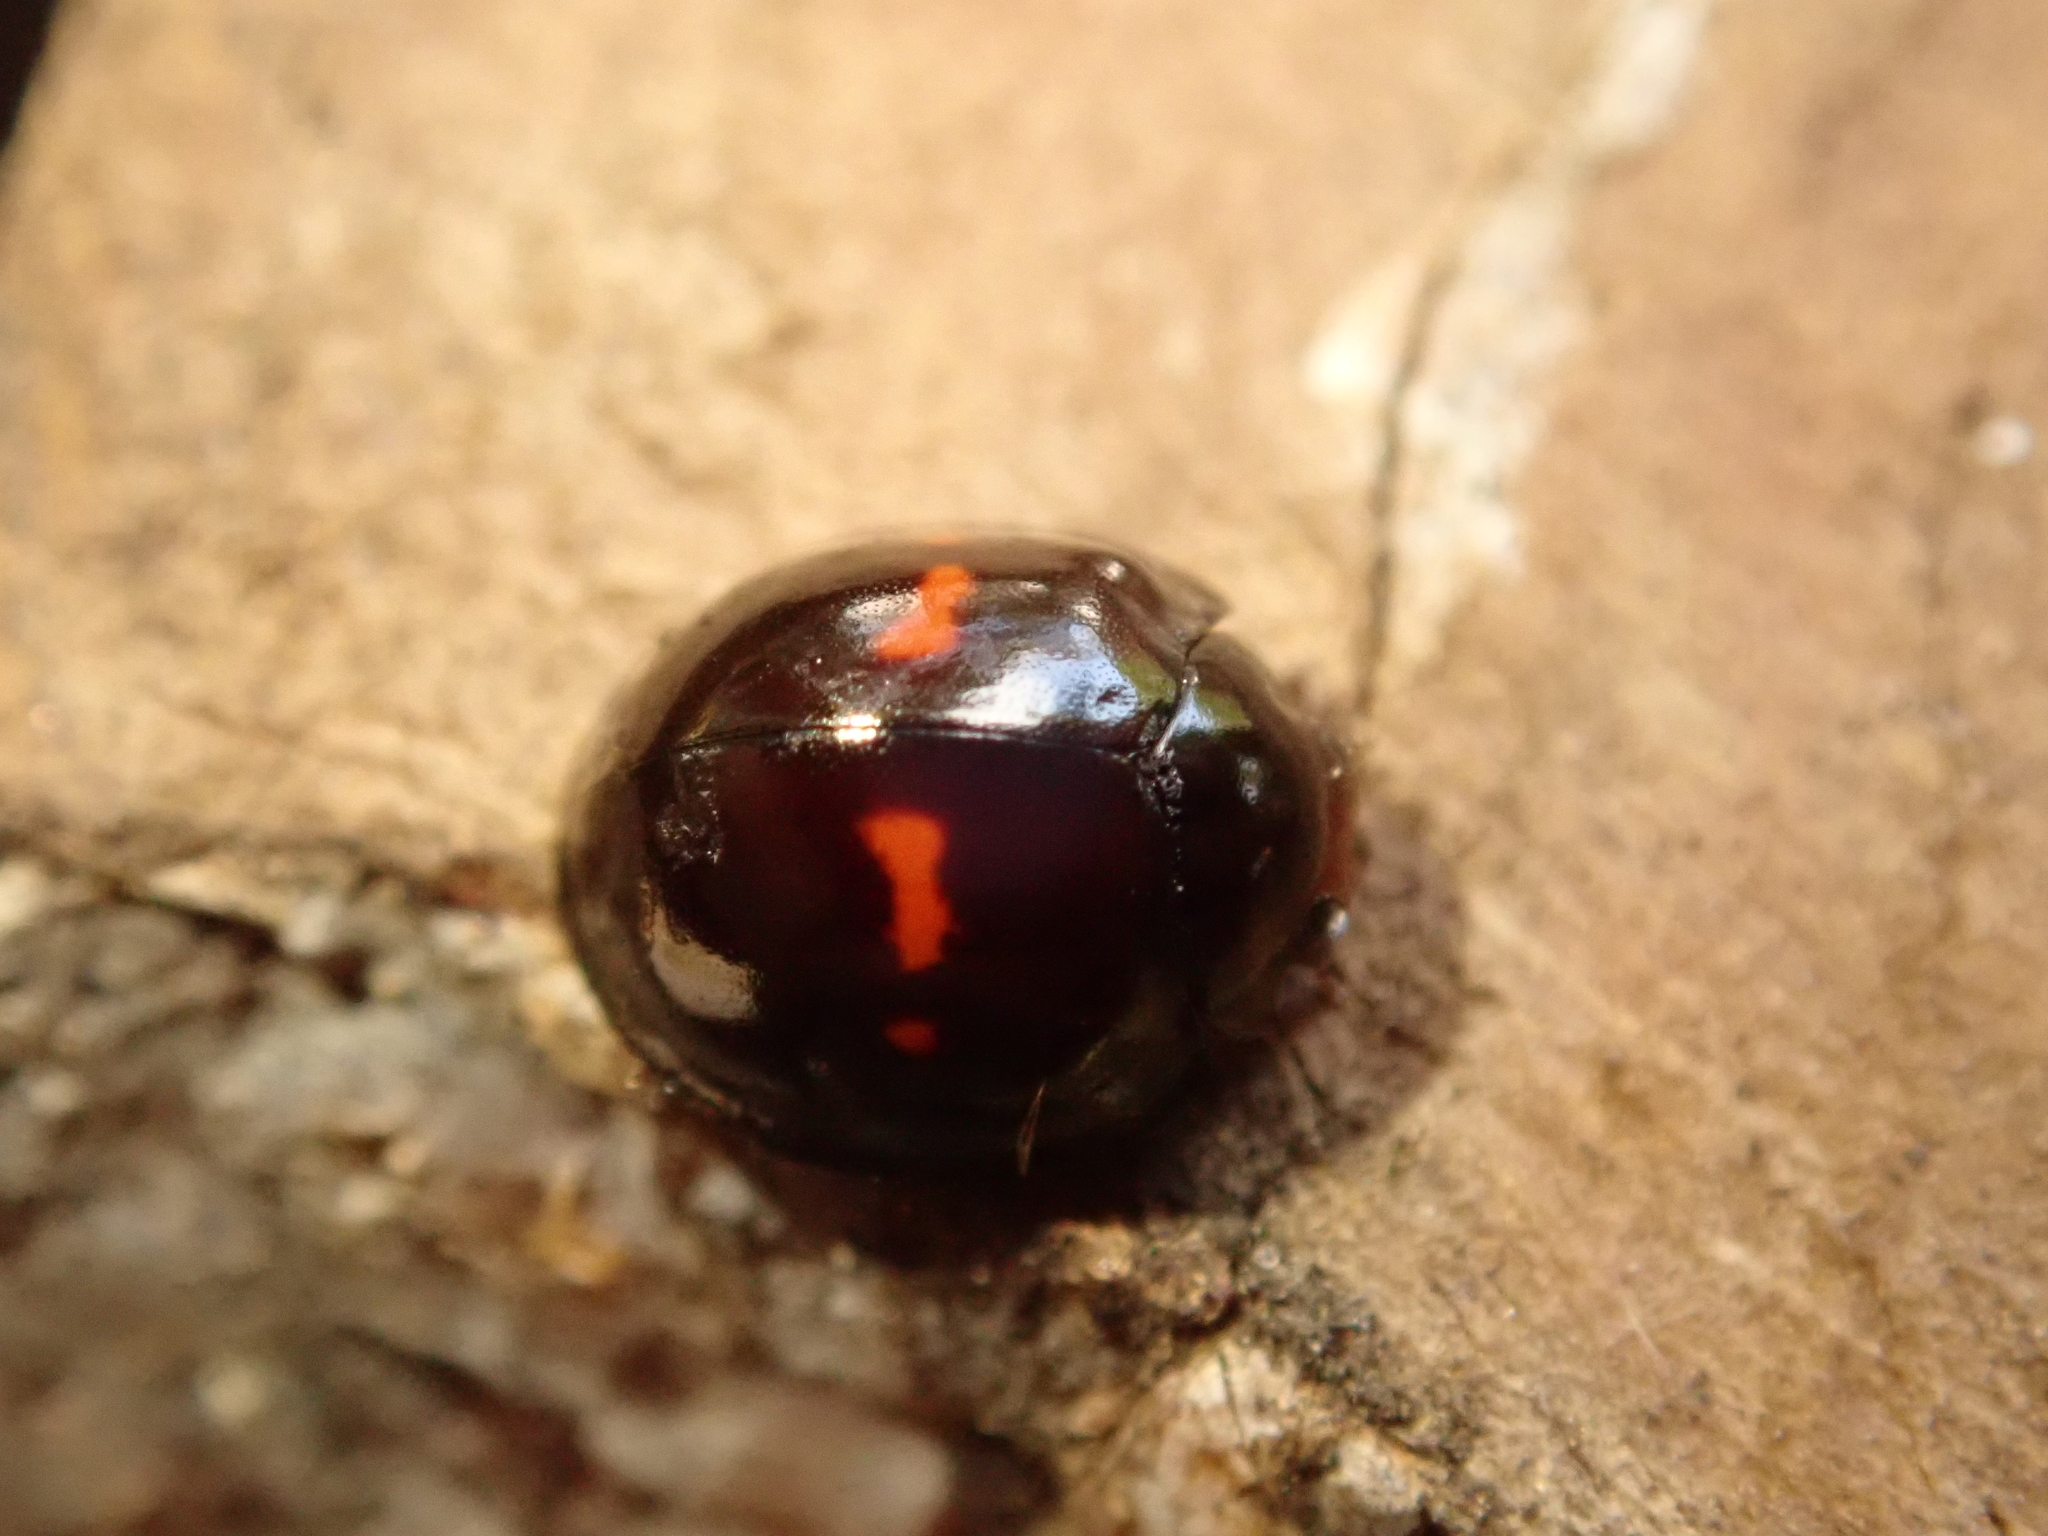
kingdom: Animalia
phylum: Arthropoda
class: Insecta
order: Coleoptera
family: Coccinellidae
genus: Chilocorus
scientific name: Chilocorus bipustulatus
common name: Heather ladybird
